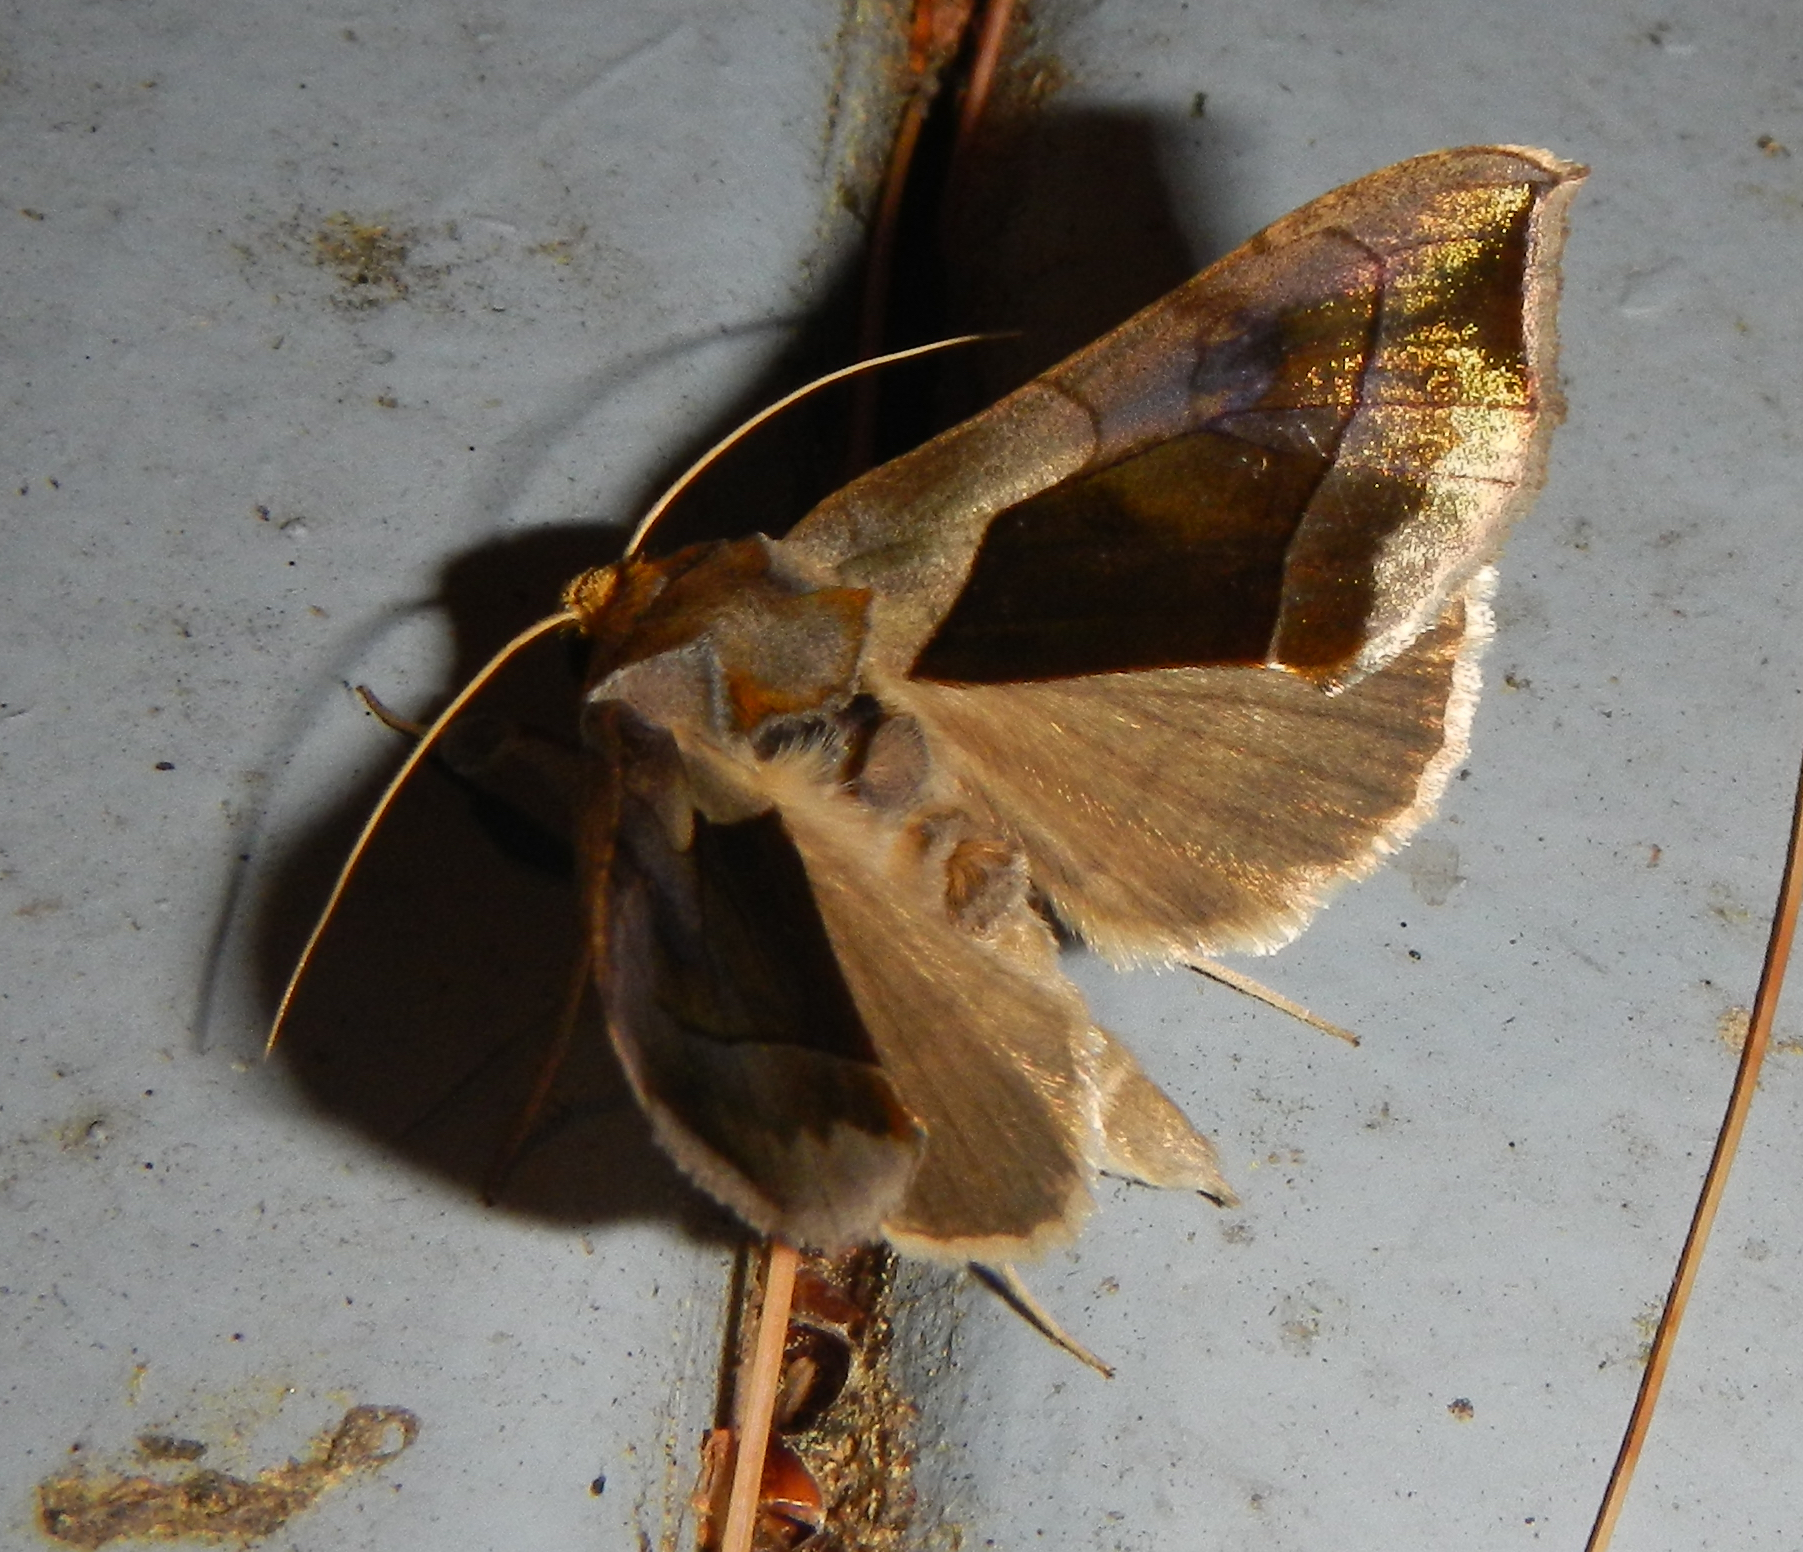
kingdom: Animalia
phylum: Arthropoda
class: Insecta
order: Lepidoptera
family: Noctuidae
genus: Diachrysia
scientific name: Diachrysia balluca
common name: Green-patched looper moth
